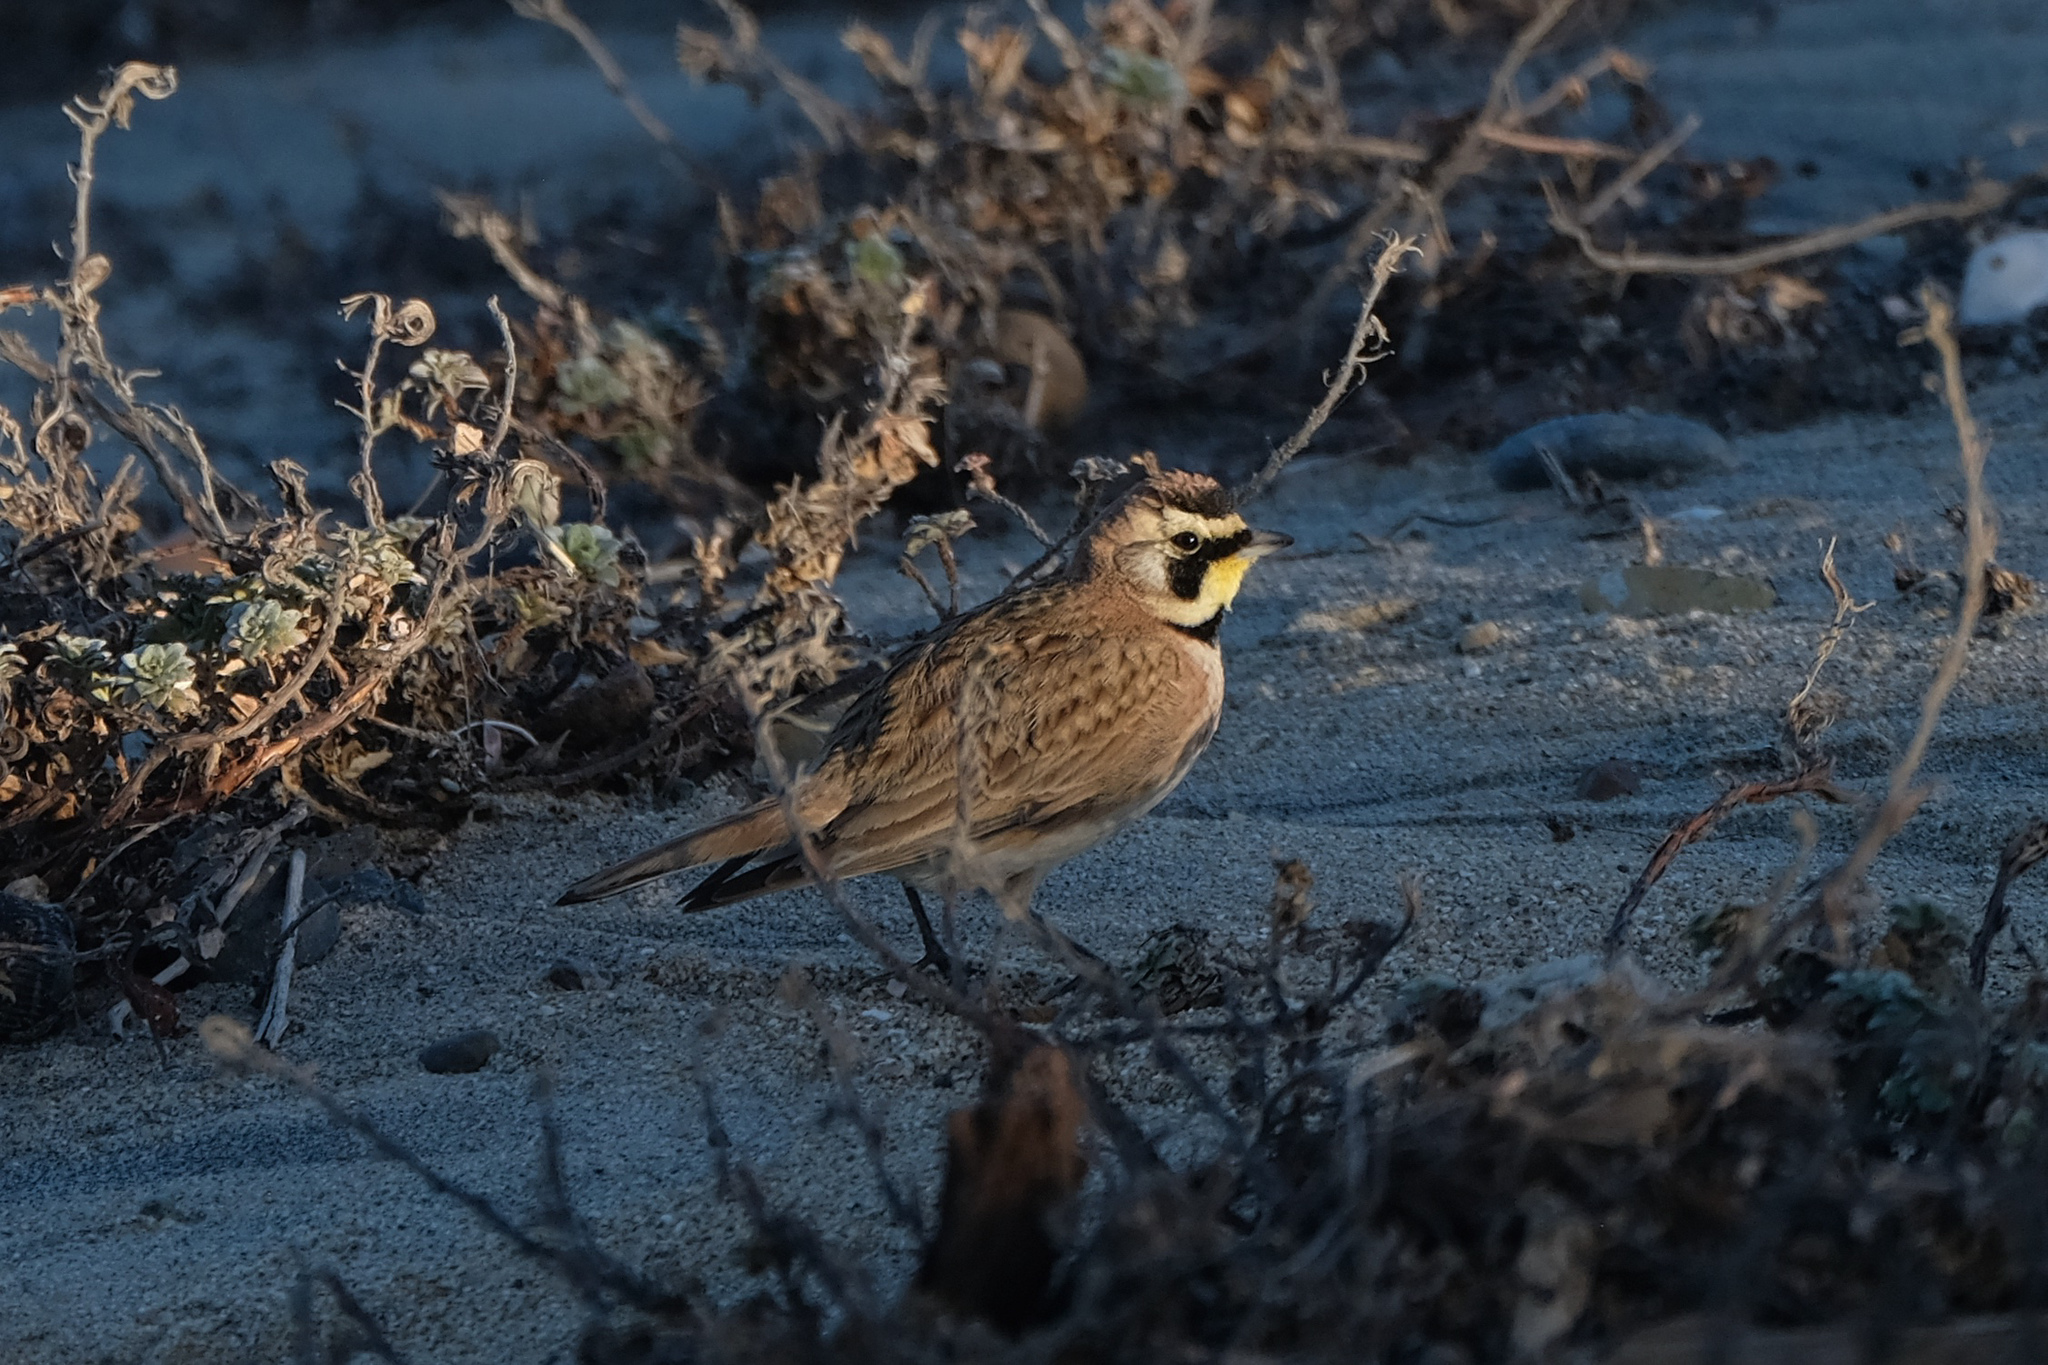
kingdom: Animalia
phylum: Chordata
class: Aves
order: Passeriformes
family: Alaudidae
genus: Eremophila
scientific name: Eremophila alpestris
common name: Horned lark
